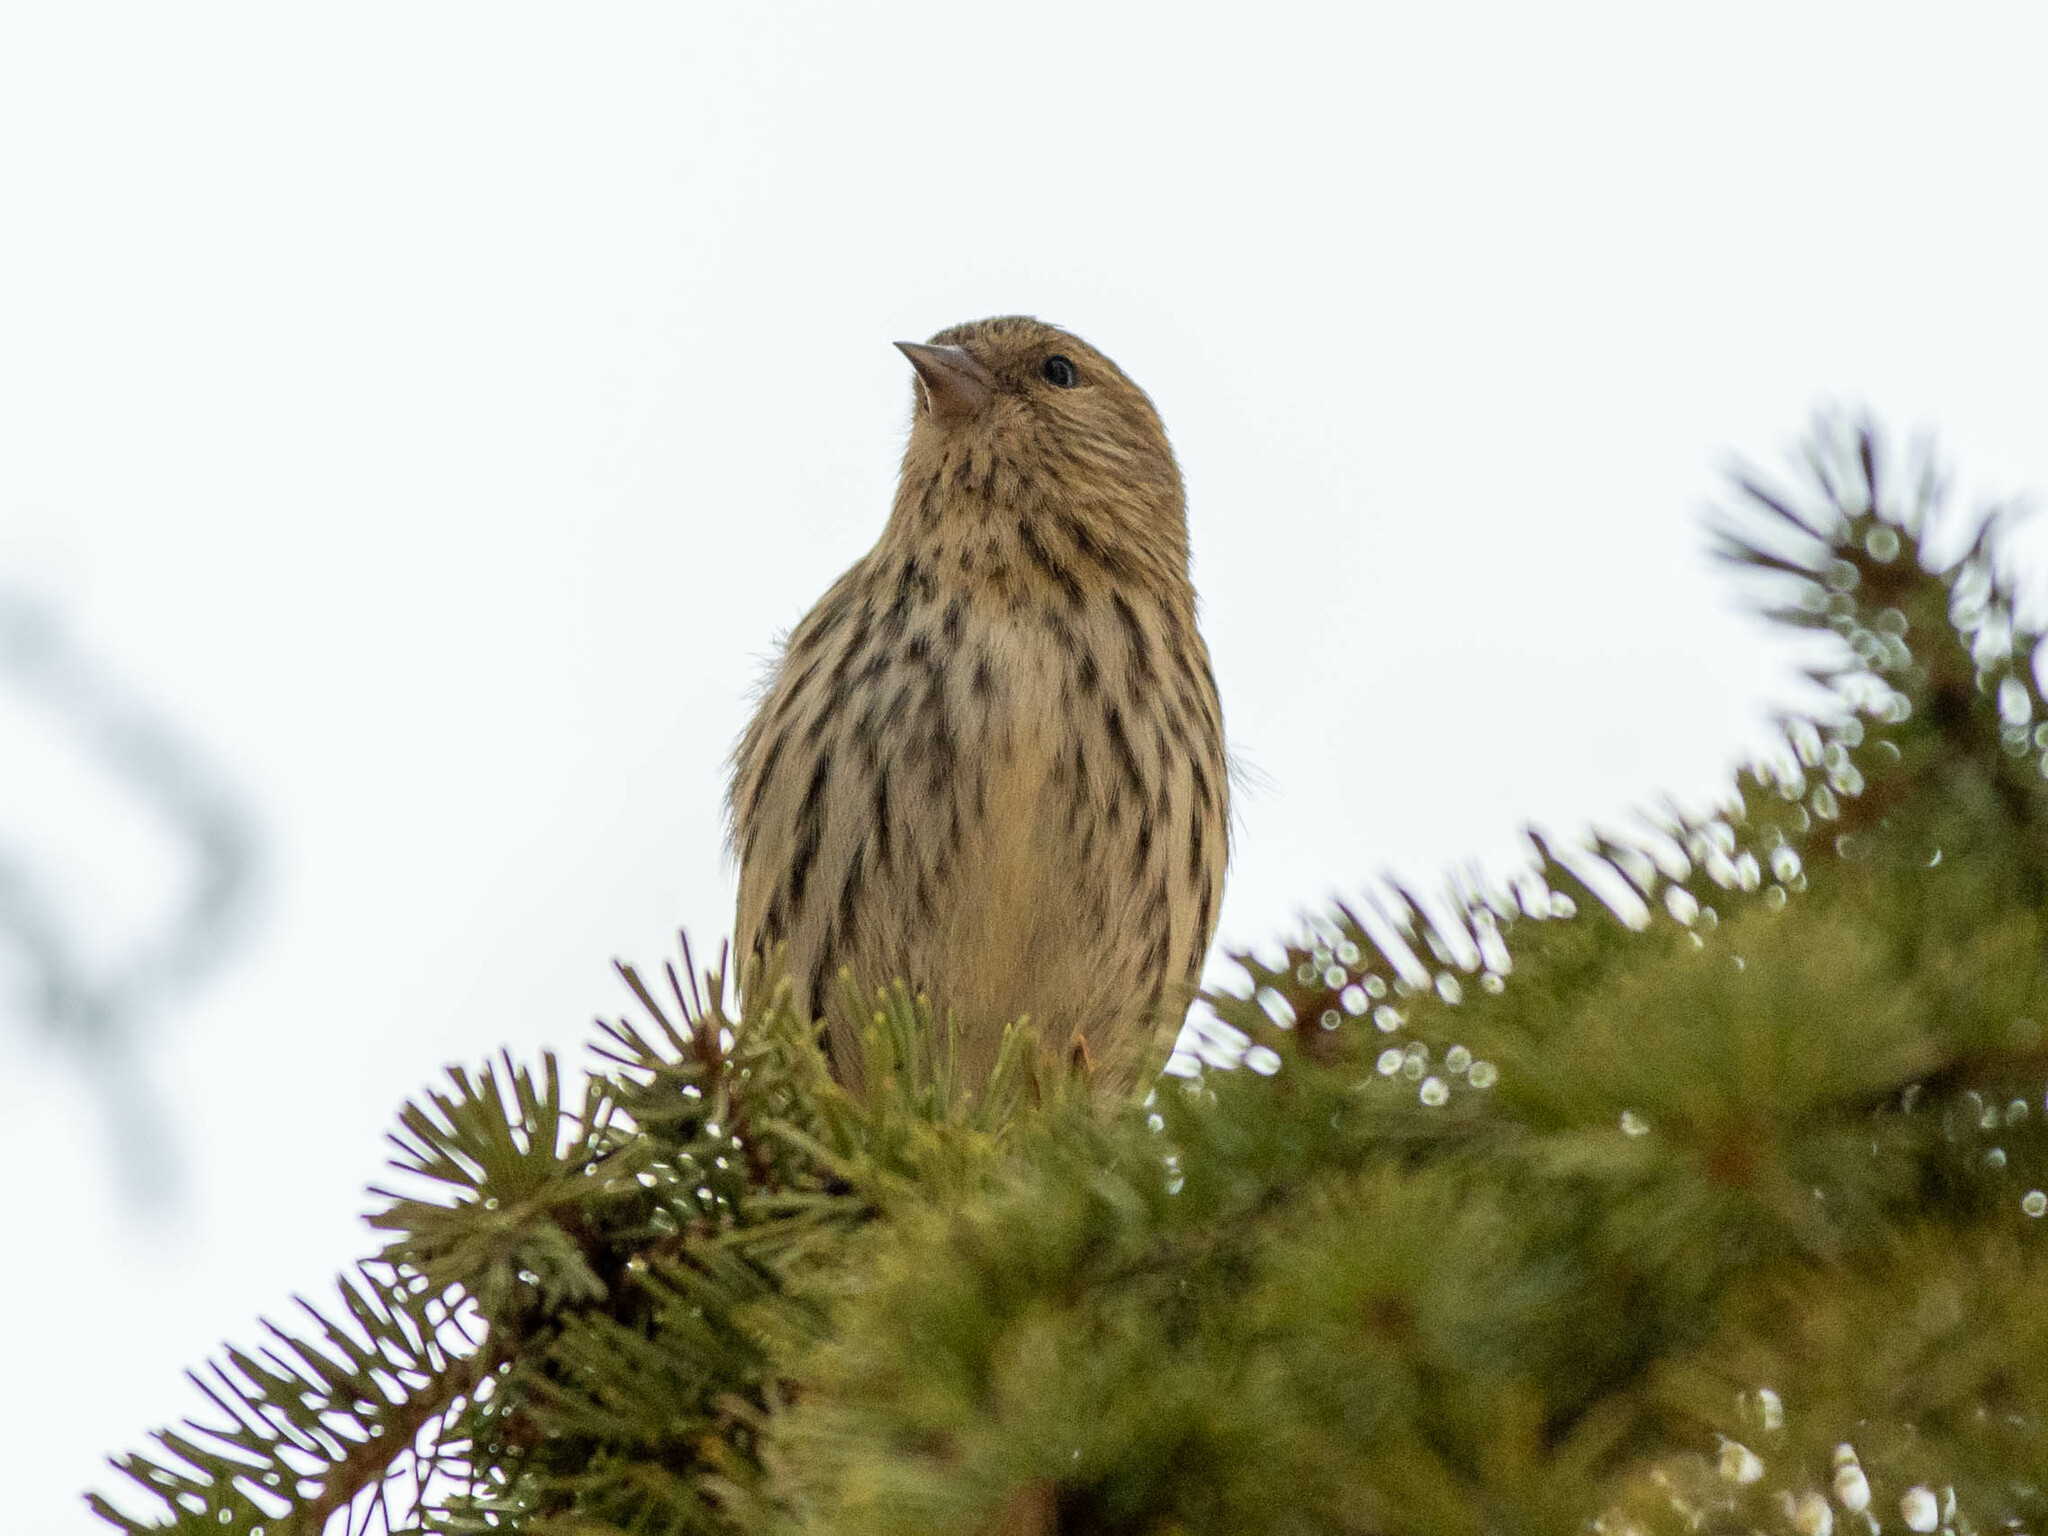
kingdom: Animalia
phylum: Chordata
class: Aves
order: Passeriformes
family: Fringillidae
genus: Spinus
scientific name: Spinus pinus
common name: Pine siskin
